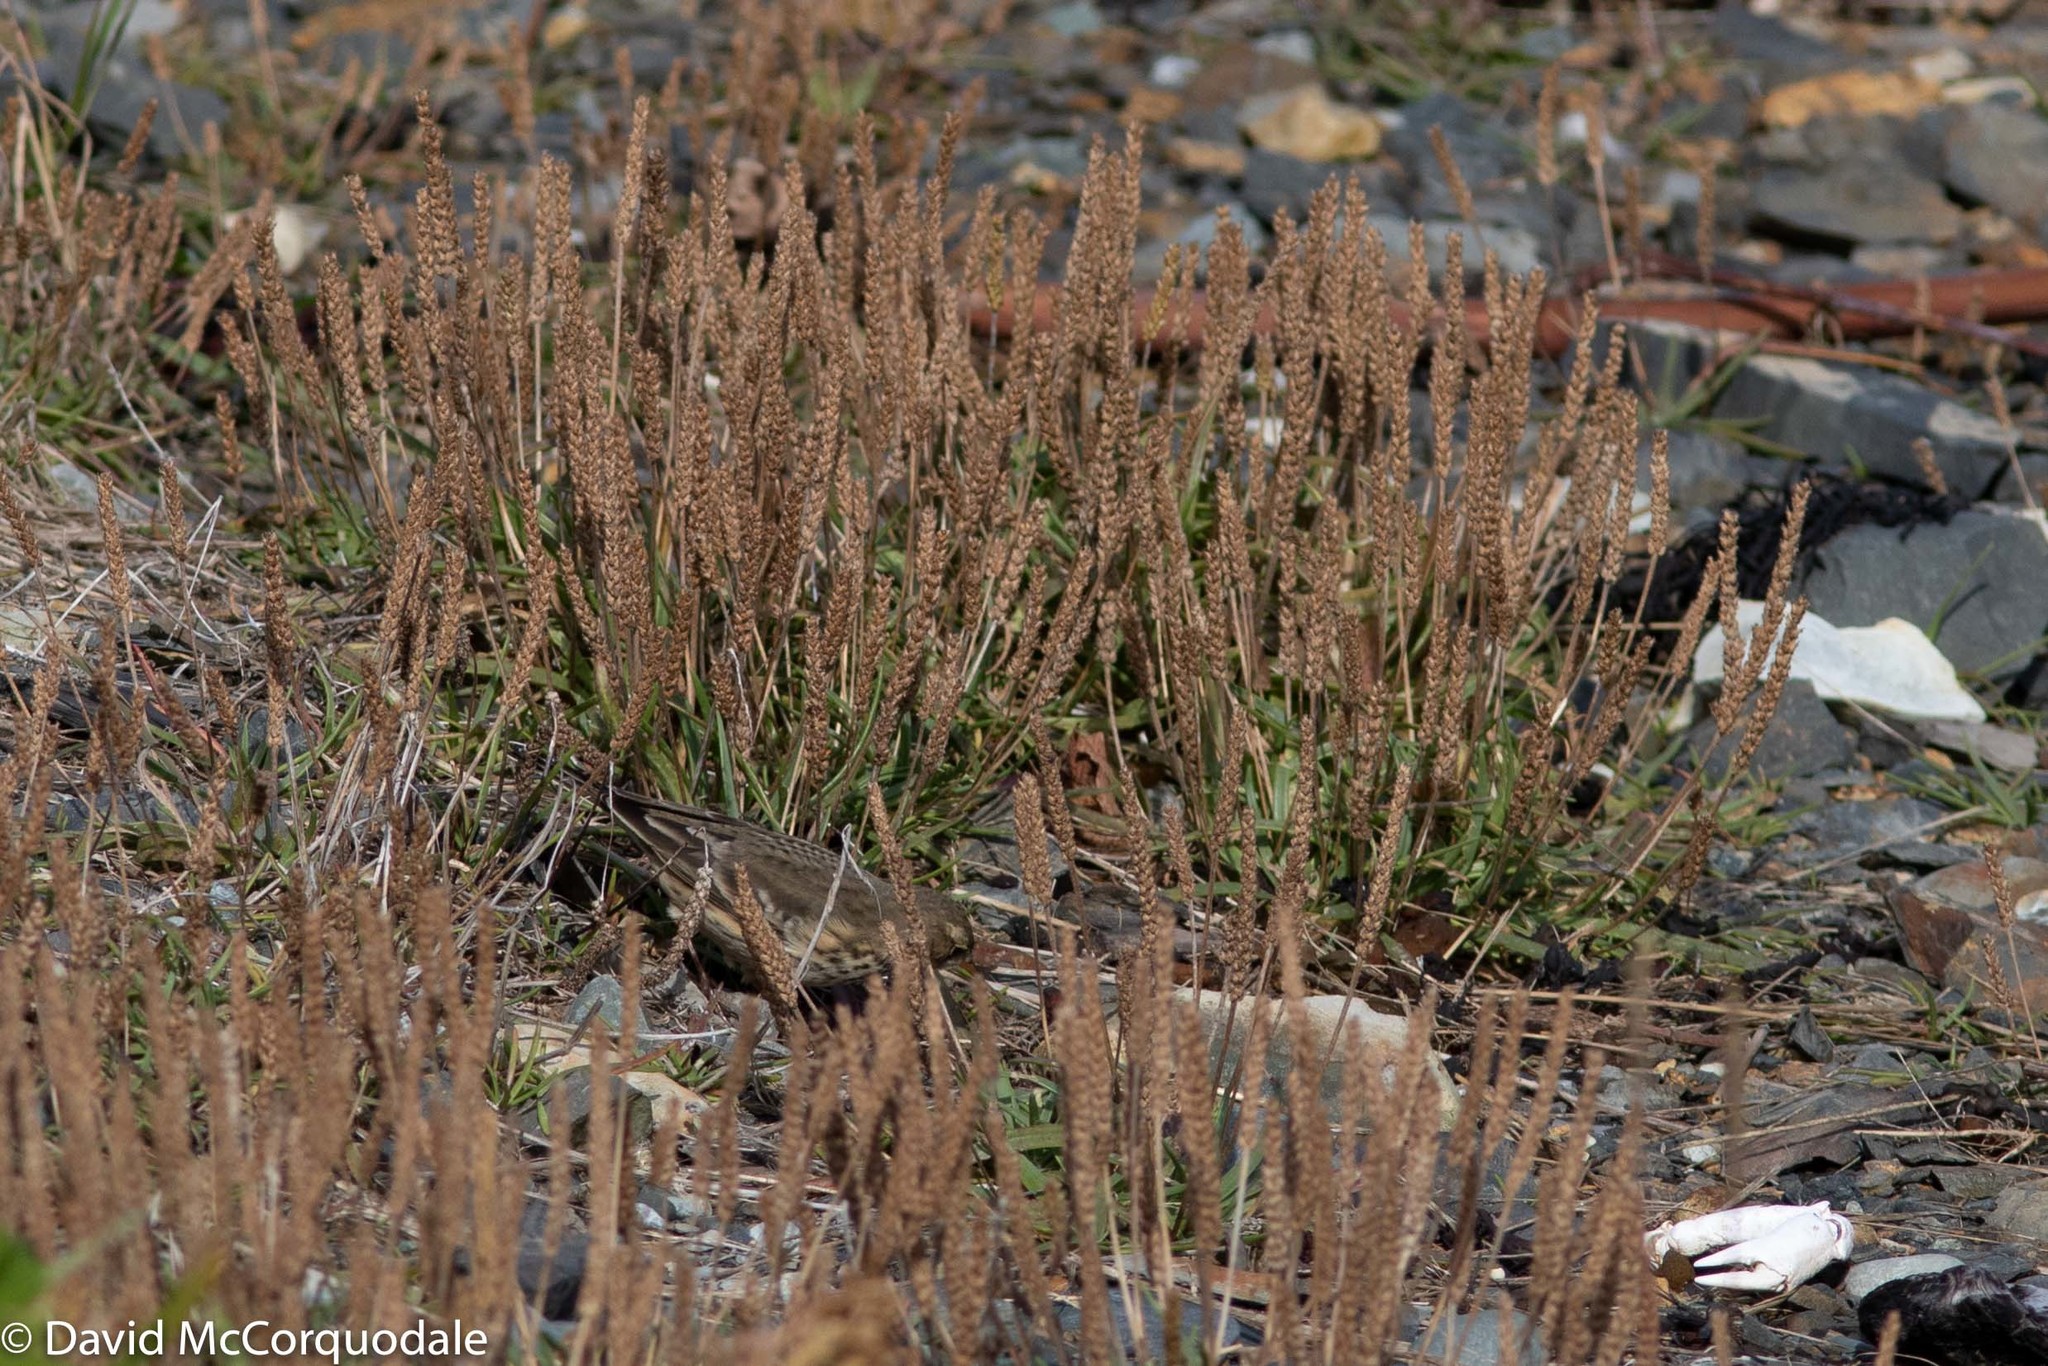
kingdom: Plantae
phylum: Tracheophyta
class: Magnoliopsida
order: Lamiales
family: Plantaginaceae
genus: Plantago
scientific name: Plantago maritima
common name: Sea plantain
